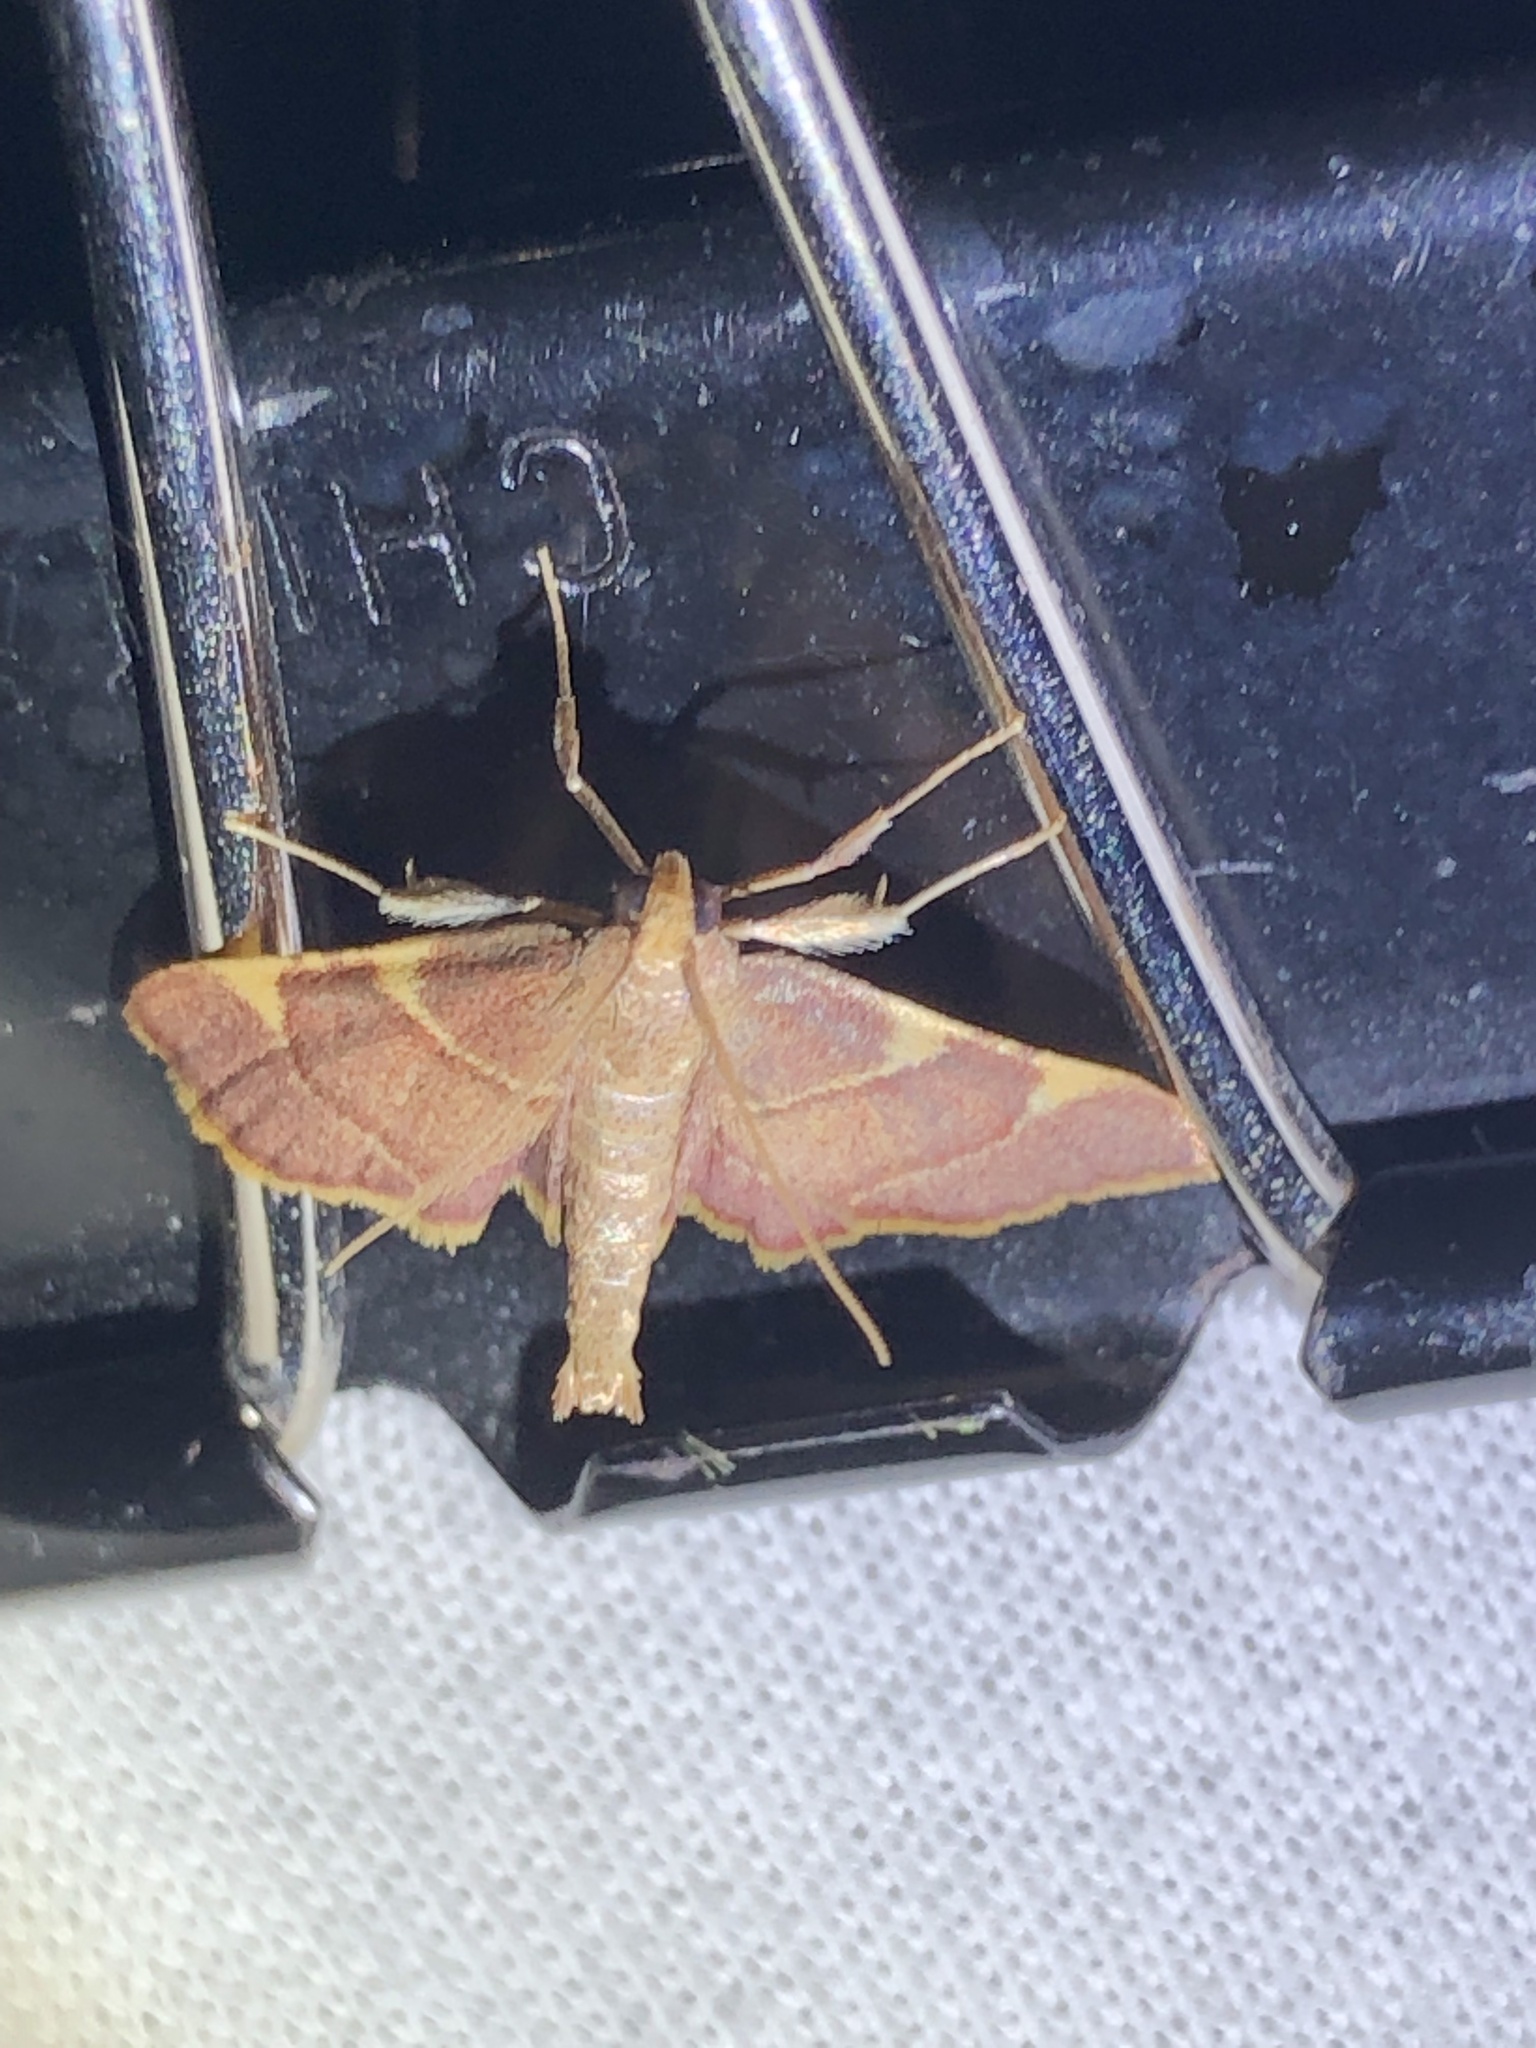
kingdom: Animalia
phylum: Arthropoda
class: Insecta
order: Lepidoptera
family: Pyralidae
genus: Hypsopygia
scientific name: Hypsopygia olinalis
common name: Yellow-fringed dolichomia moth
